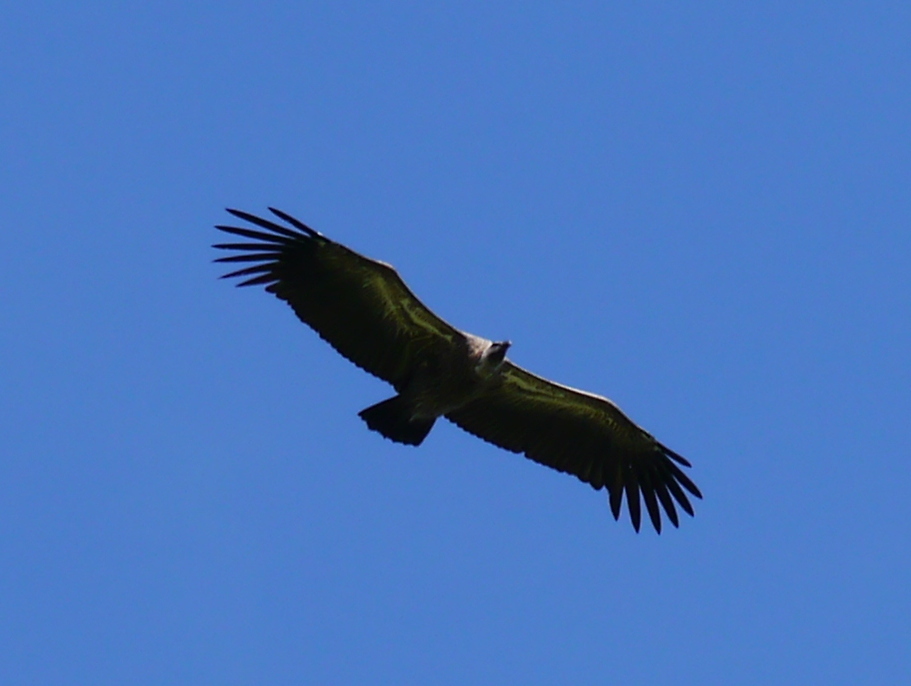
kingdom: Animalia
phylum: Chordata
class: Aves
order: Accipitriformes
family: Accipitridae
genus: Gyps
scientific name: Gyps africanus
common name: White-backed vulture
